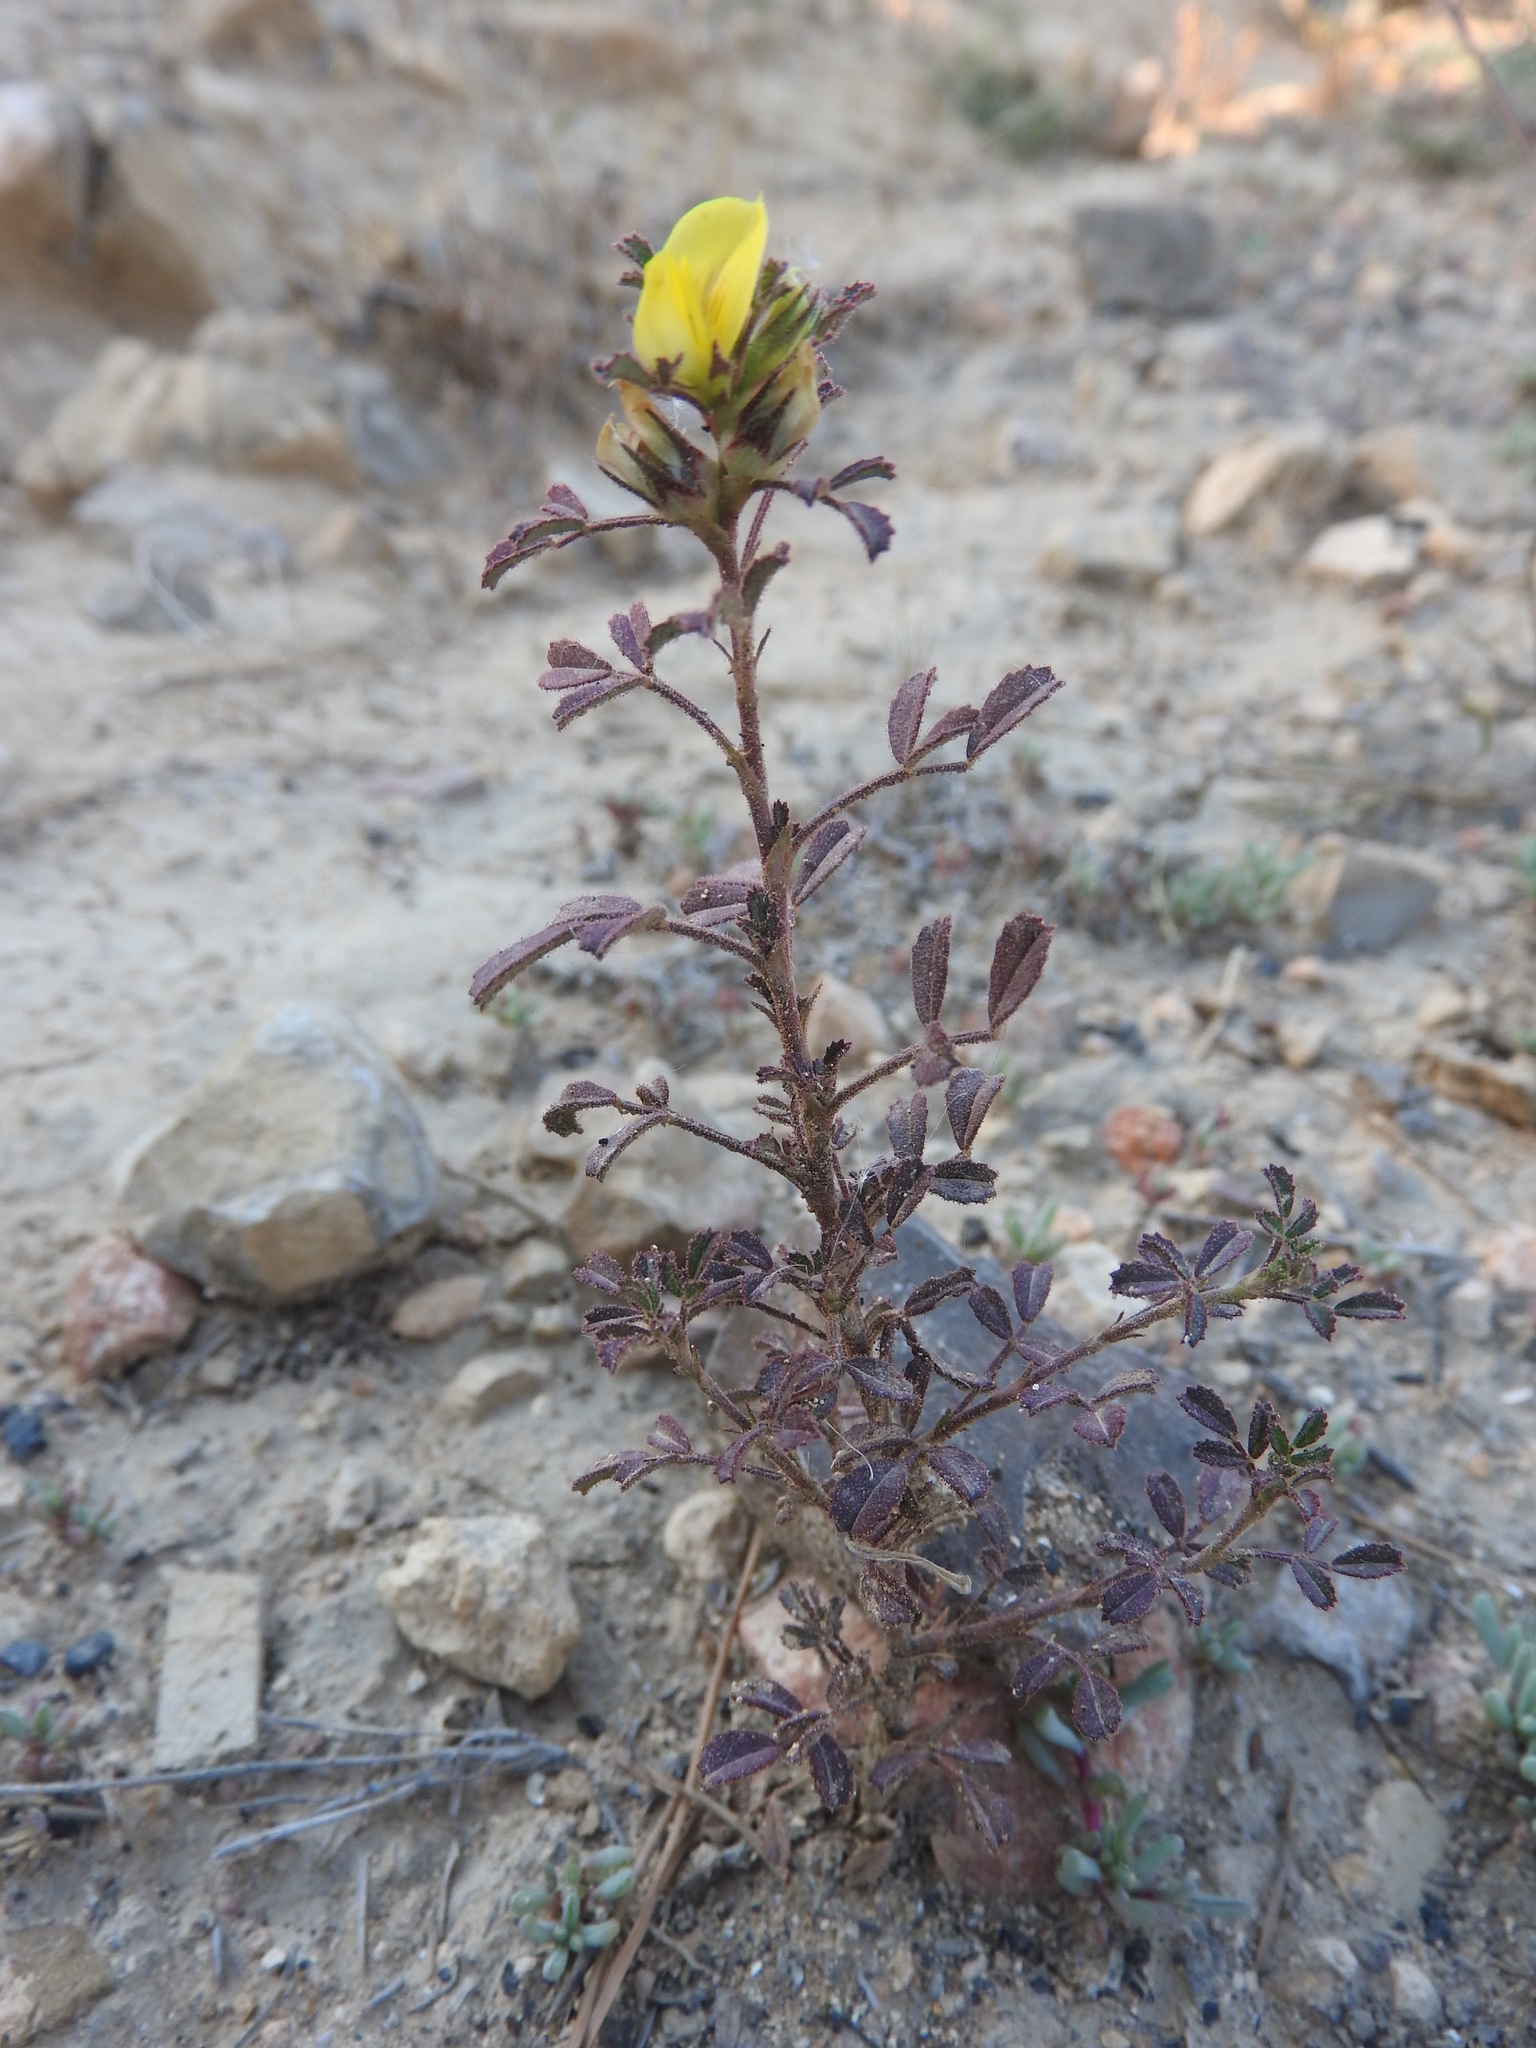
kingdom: Plantae
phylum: Tracheophyta
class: Magnoliopsida
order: Fabales
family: Fabaceae
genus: Ononis
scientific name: Ononis pusilla
